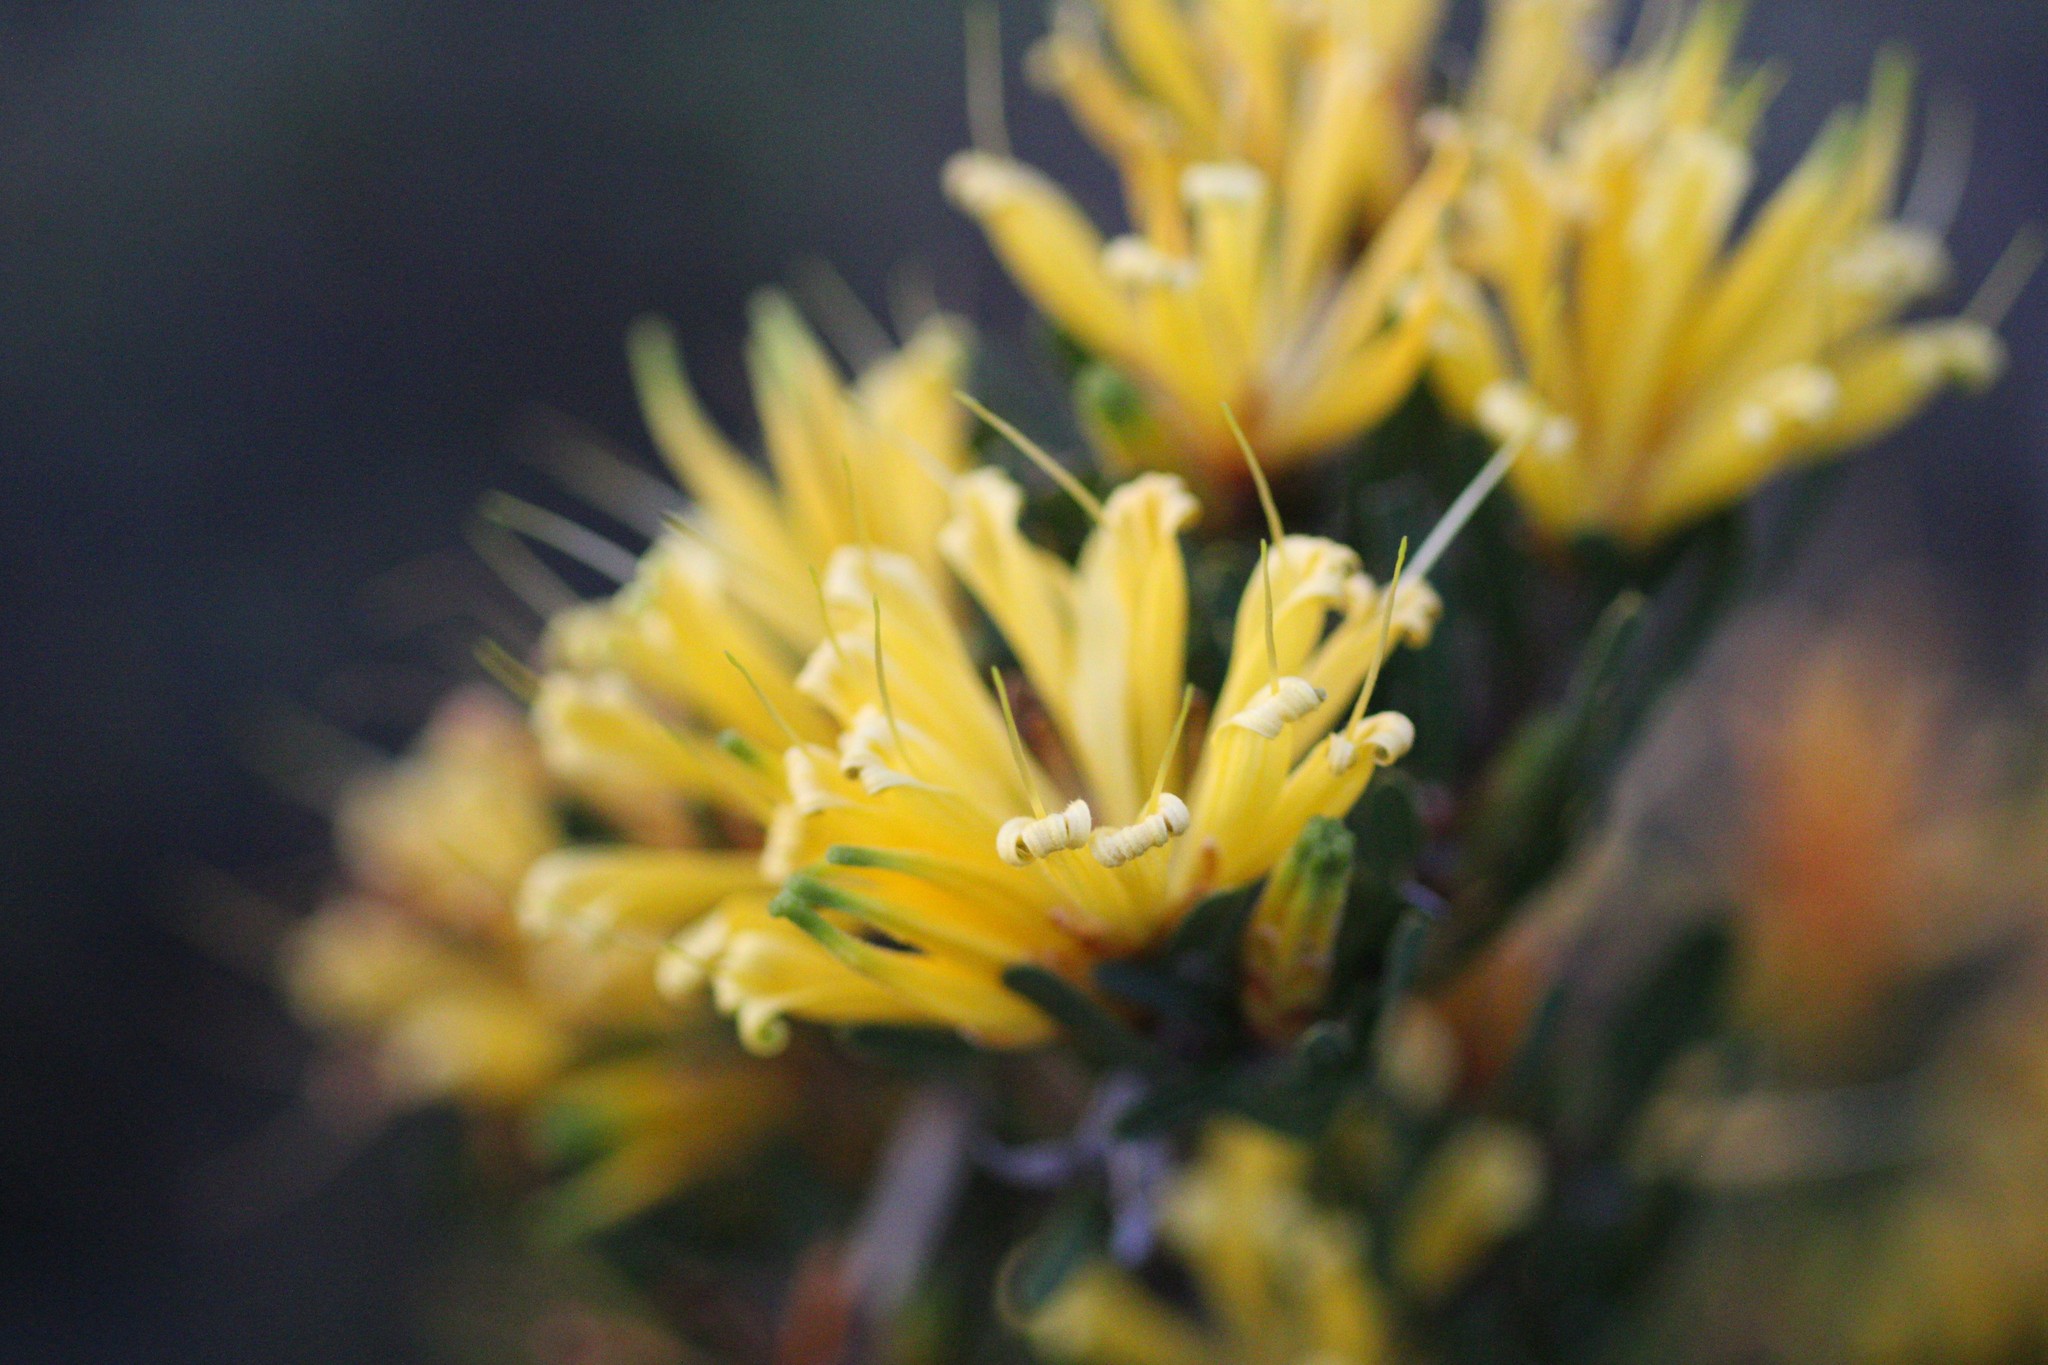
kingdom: Plantae
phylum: Tracheophyta
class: Magnoliopsida
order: Proteales
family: Proteaceae
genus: Lambertia
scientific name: Lambertia multiflora
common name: Many-flowered honeysuckle
